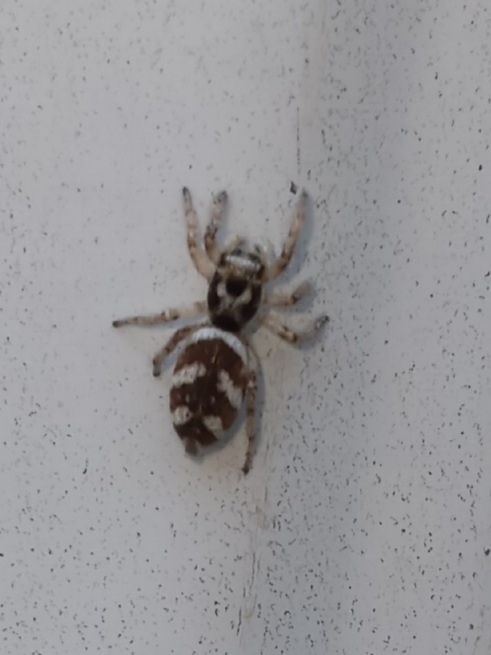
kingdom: Animalia
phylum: Arthropoda
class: Arachnida
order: Araneae
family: Salticidae
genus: Salticus
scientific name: Salticus scenicus
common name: Zebra jumper
